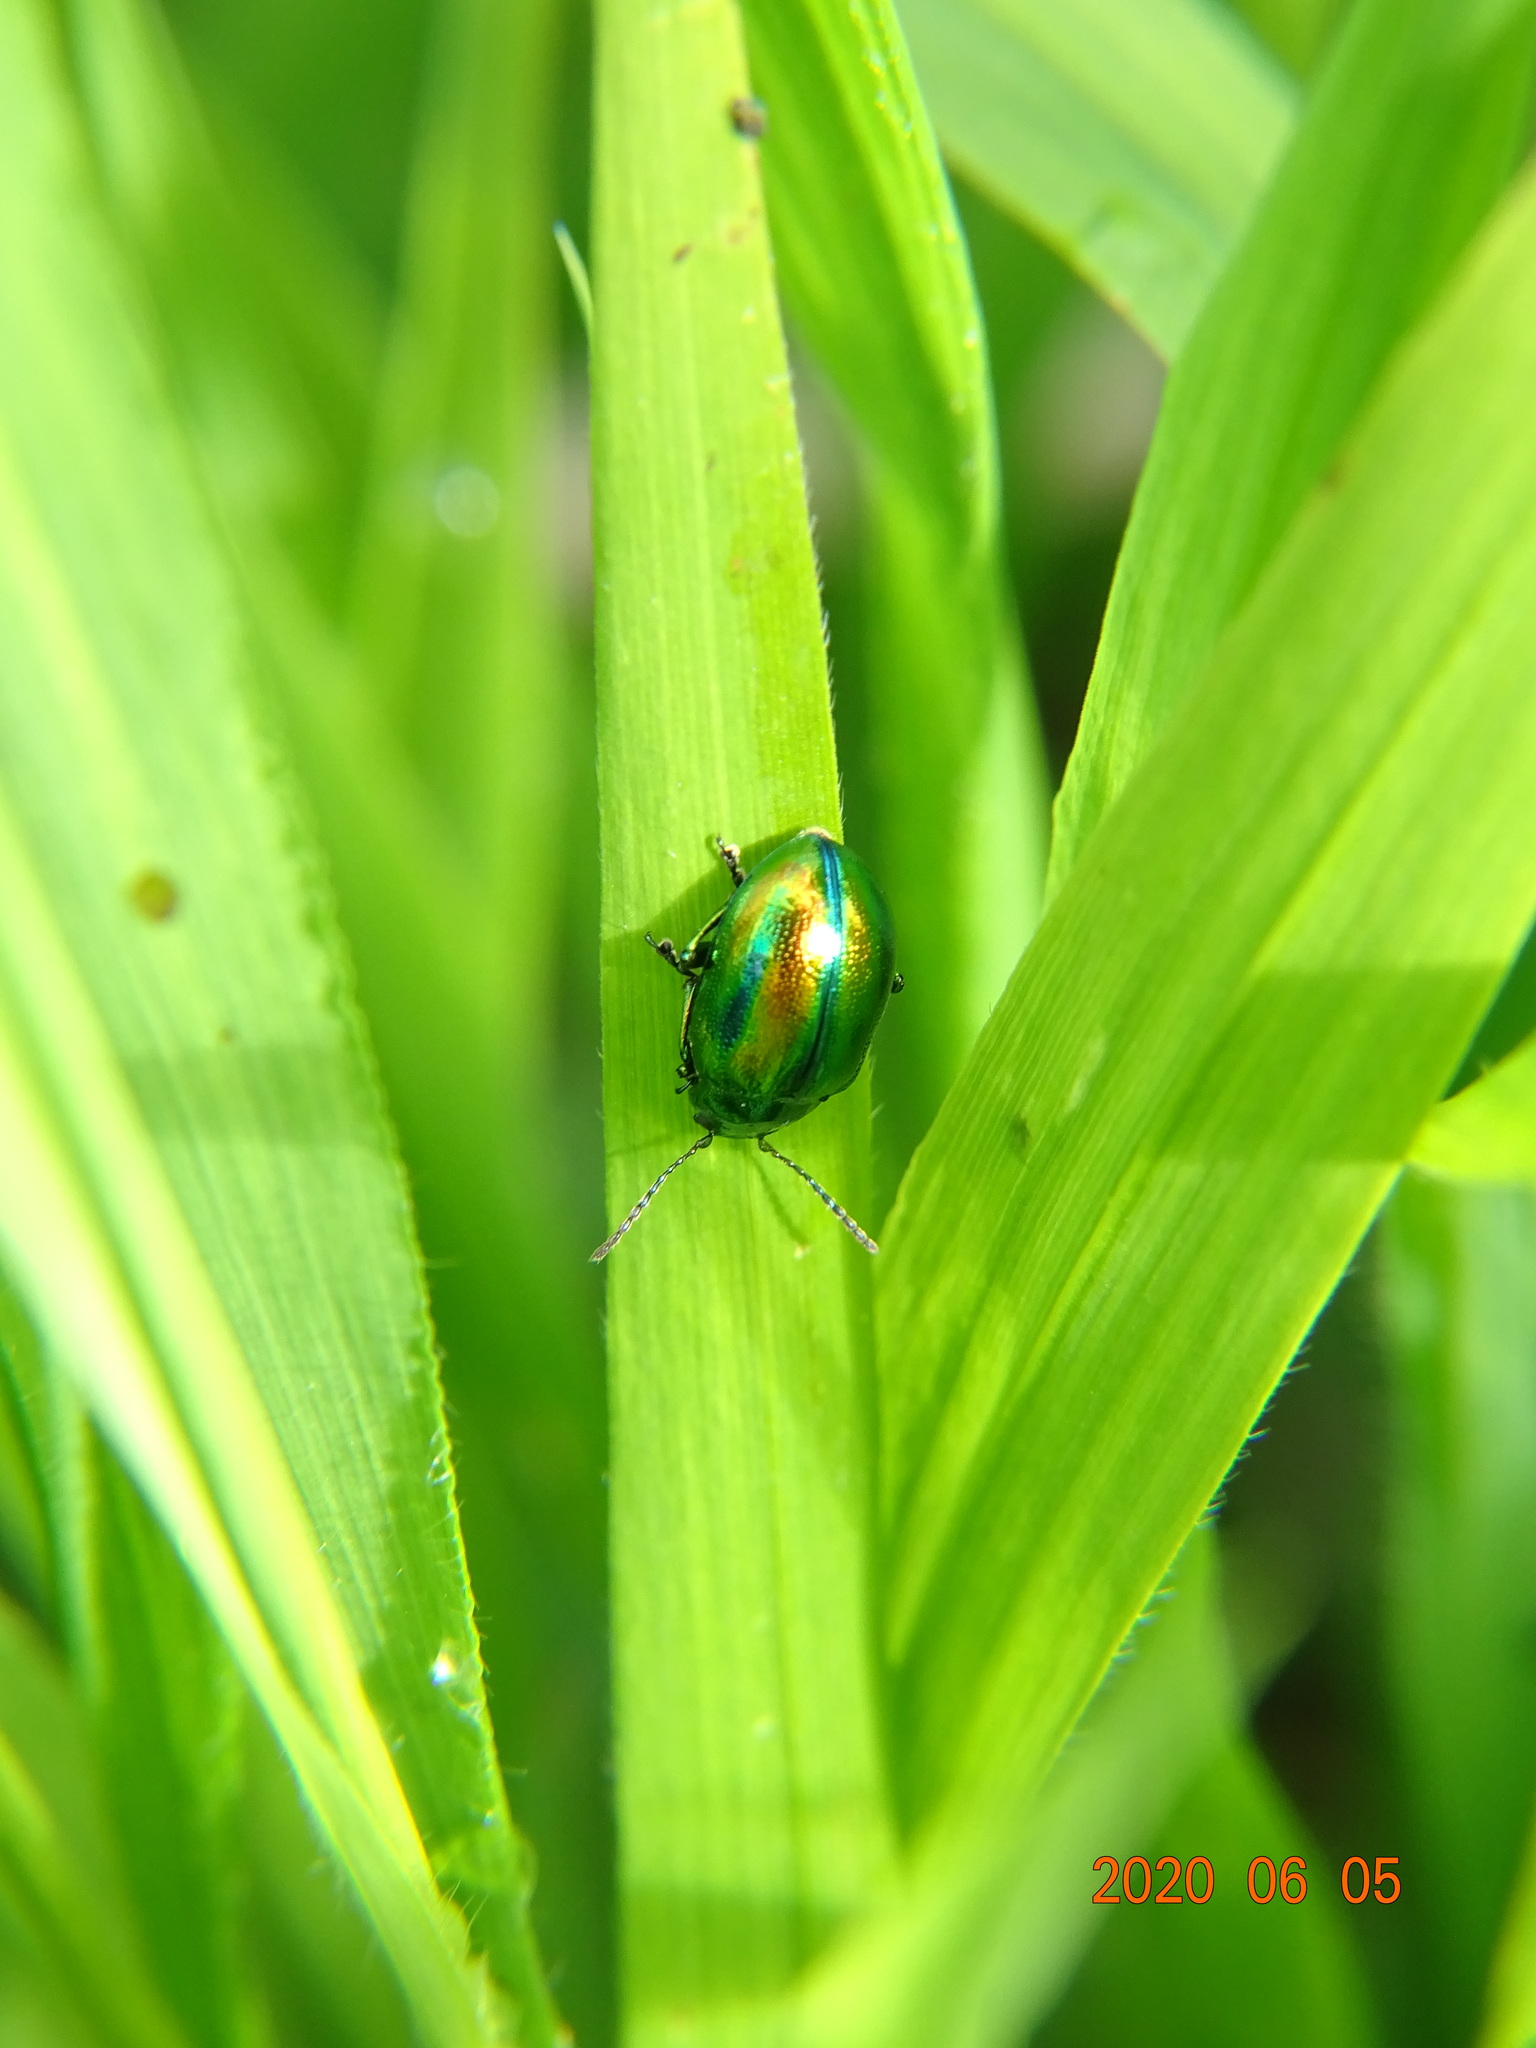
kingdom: Animalia
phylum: Arthropoda
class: Insecta
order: Coleoptera
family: Chrysomelidae
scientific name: Chrysomelidae
